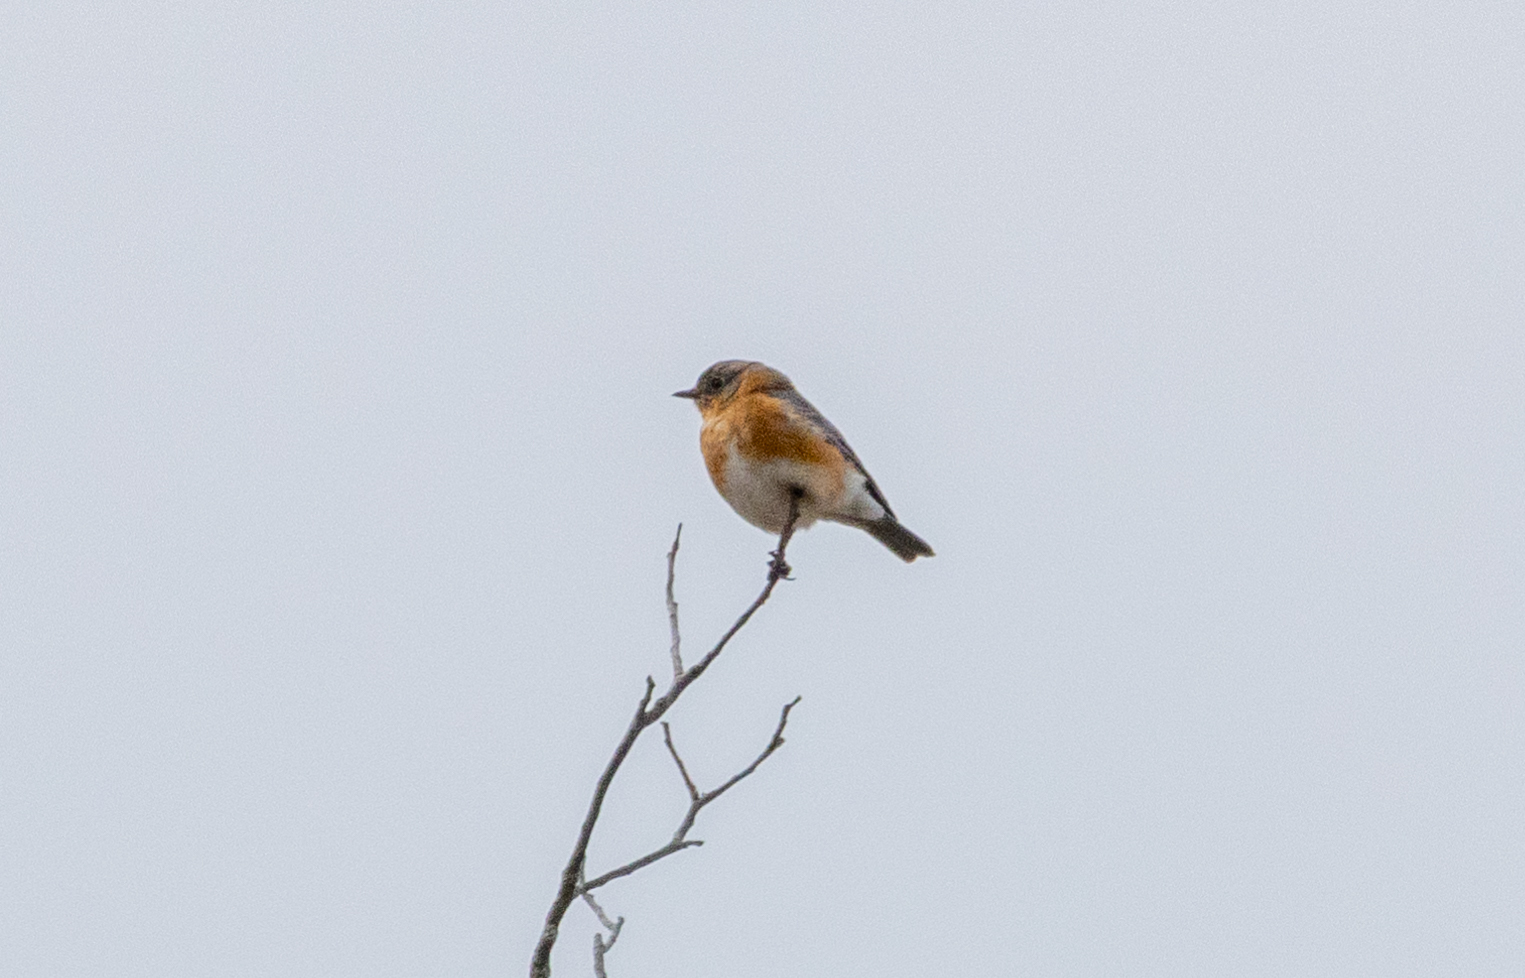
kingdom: Animalia
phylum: Chordata
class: Aves
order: Passeriformes
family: Turdidae
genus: Sialia
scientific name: Sialia sialis
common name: Eastern bluebird
